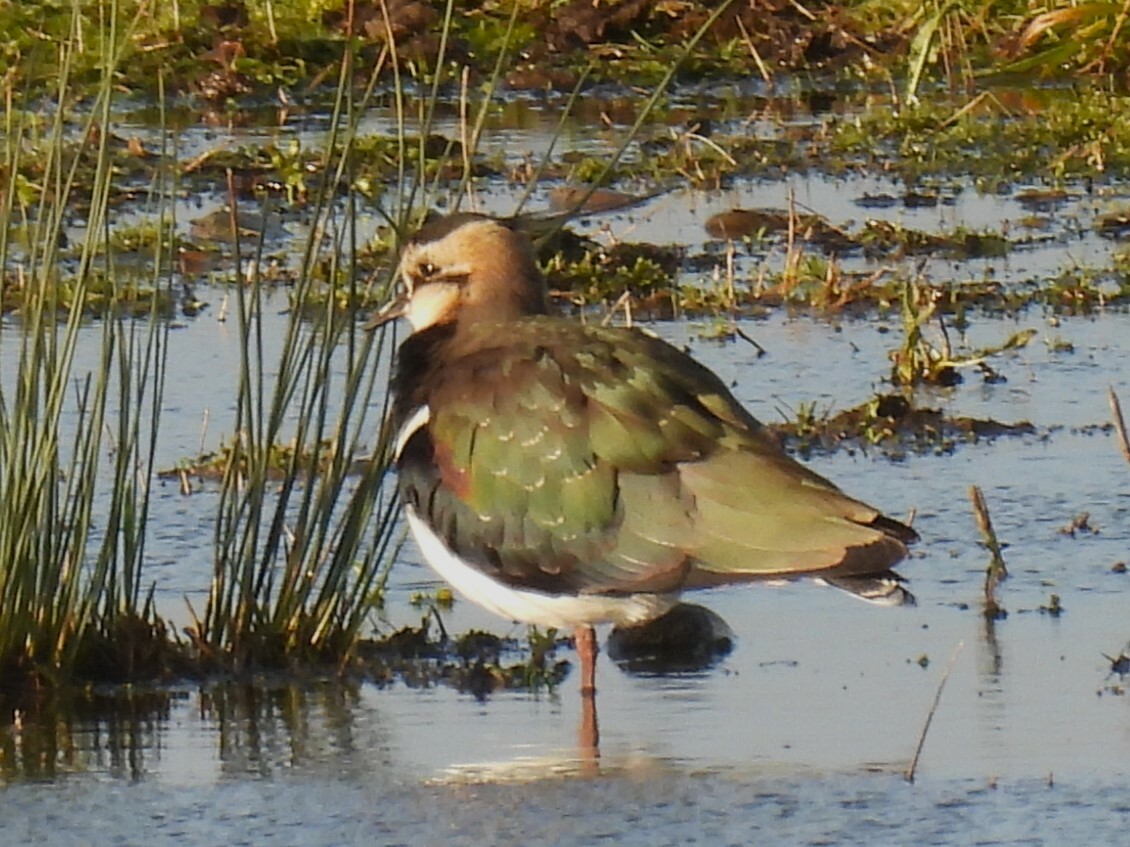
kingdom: Animalia
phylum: Chordata
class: Aves
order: Charadriiformes
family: Charadriidae
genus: Vanellus
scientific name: Vanellus vanellus
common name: Northern lapwing
